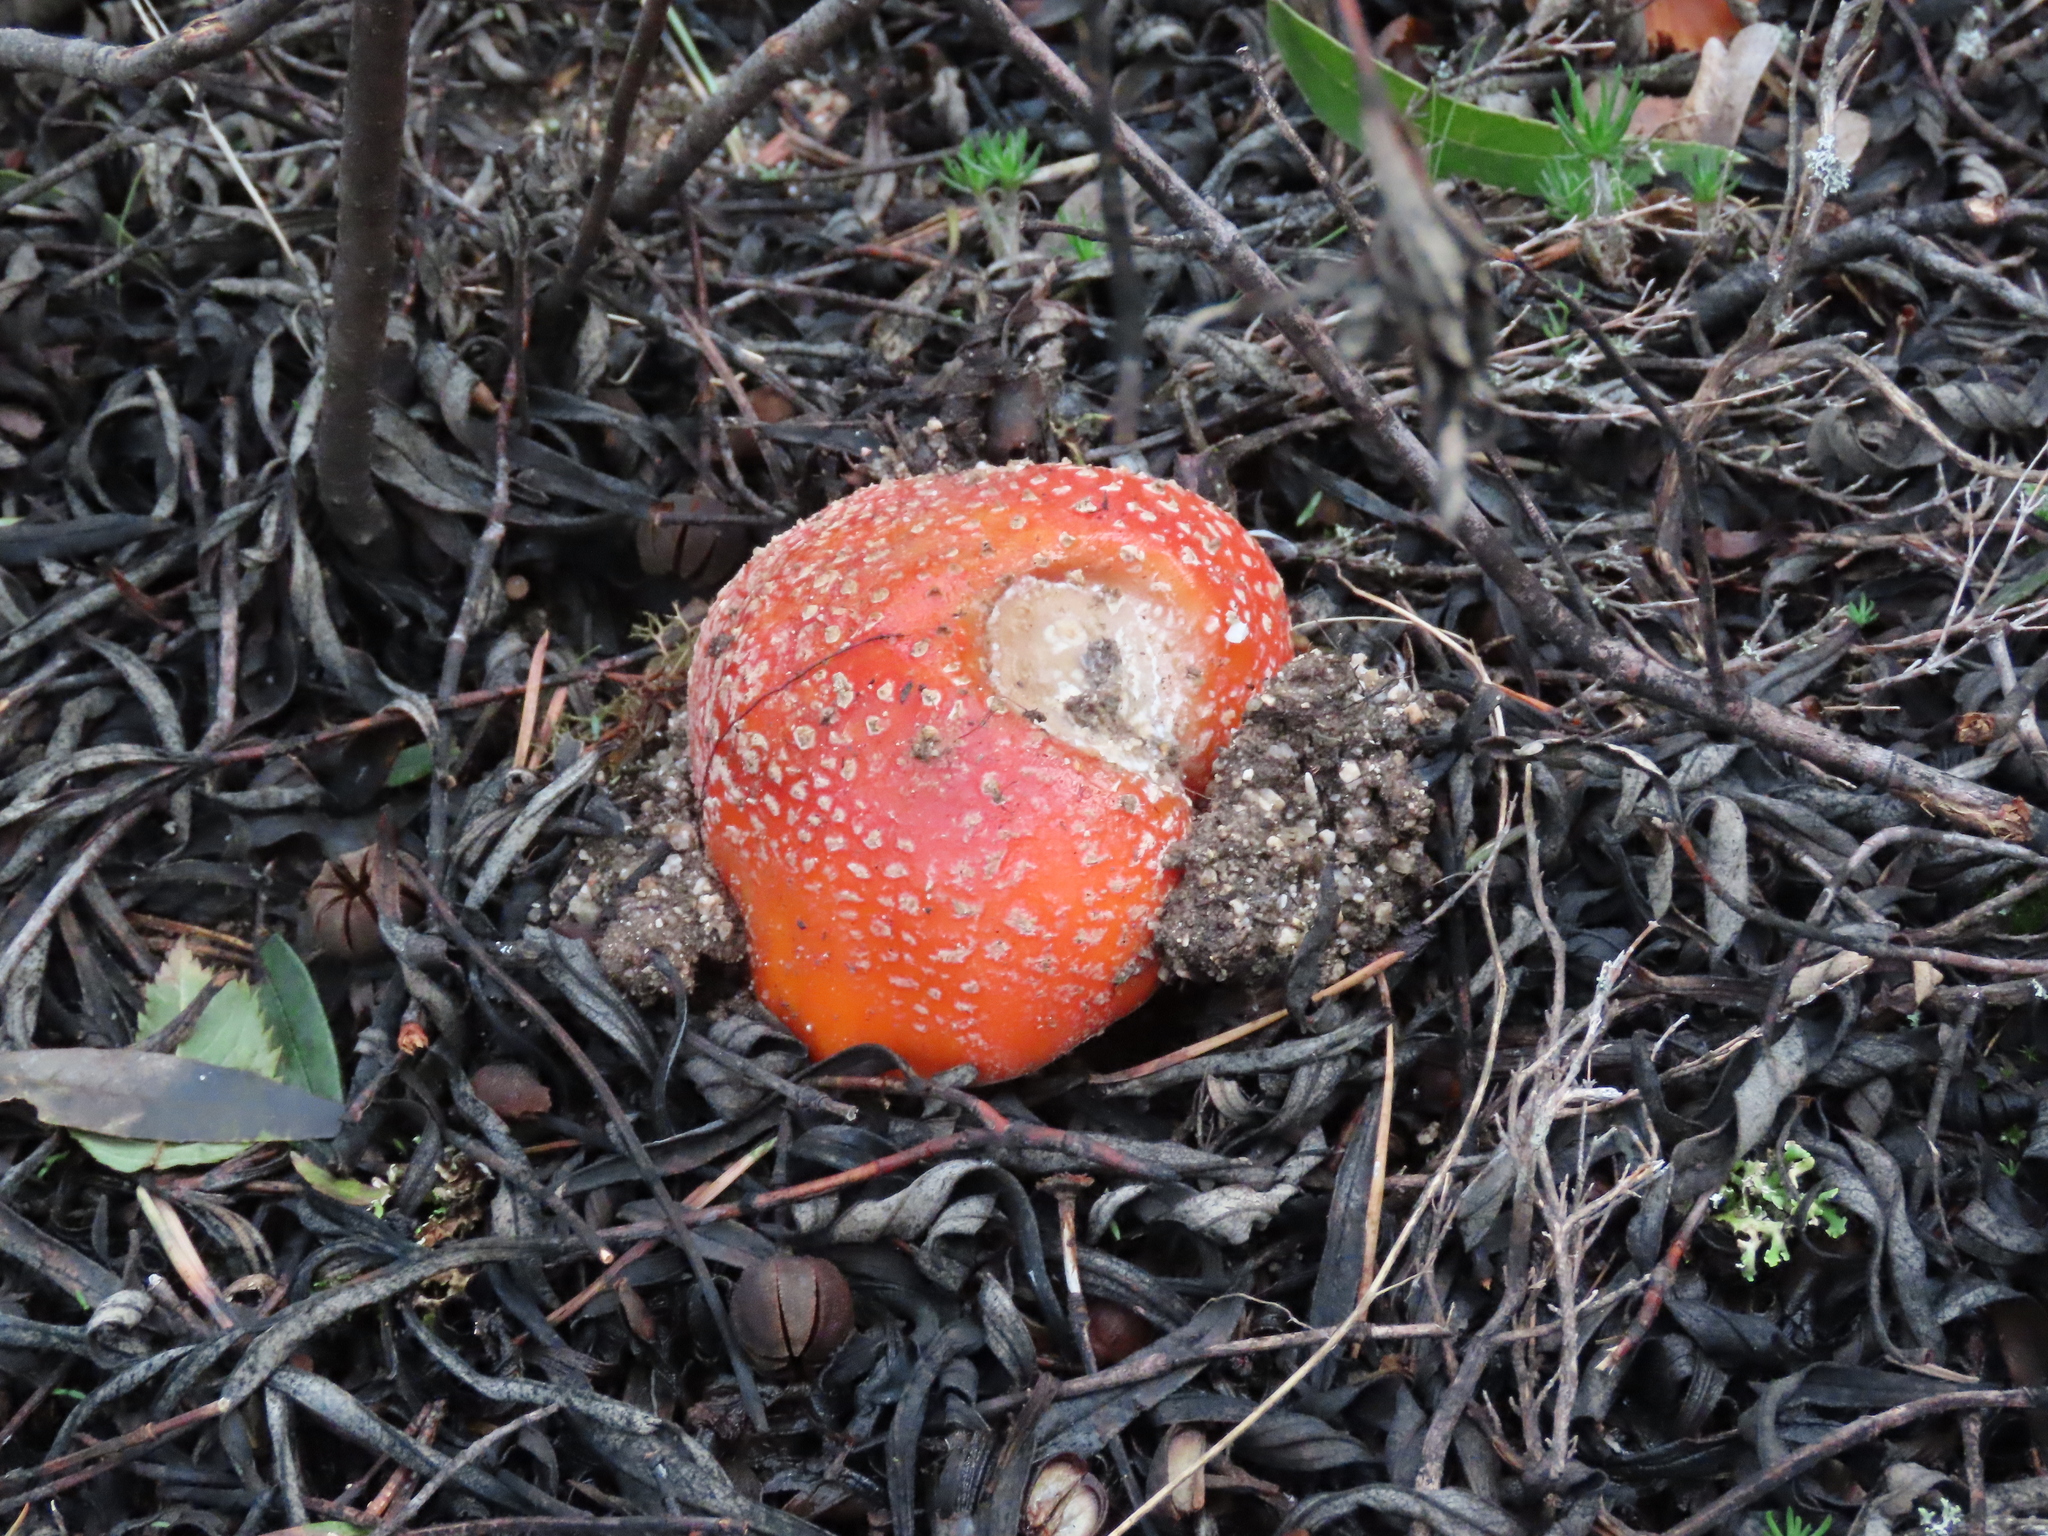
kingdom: Fungi
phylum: Basidiomycota
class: Agaricomycetes
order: Agaricales
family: Amanitaceae
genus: Amanita
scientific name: Amanita muscaria
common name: Fly agaric
